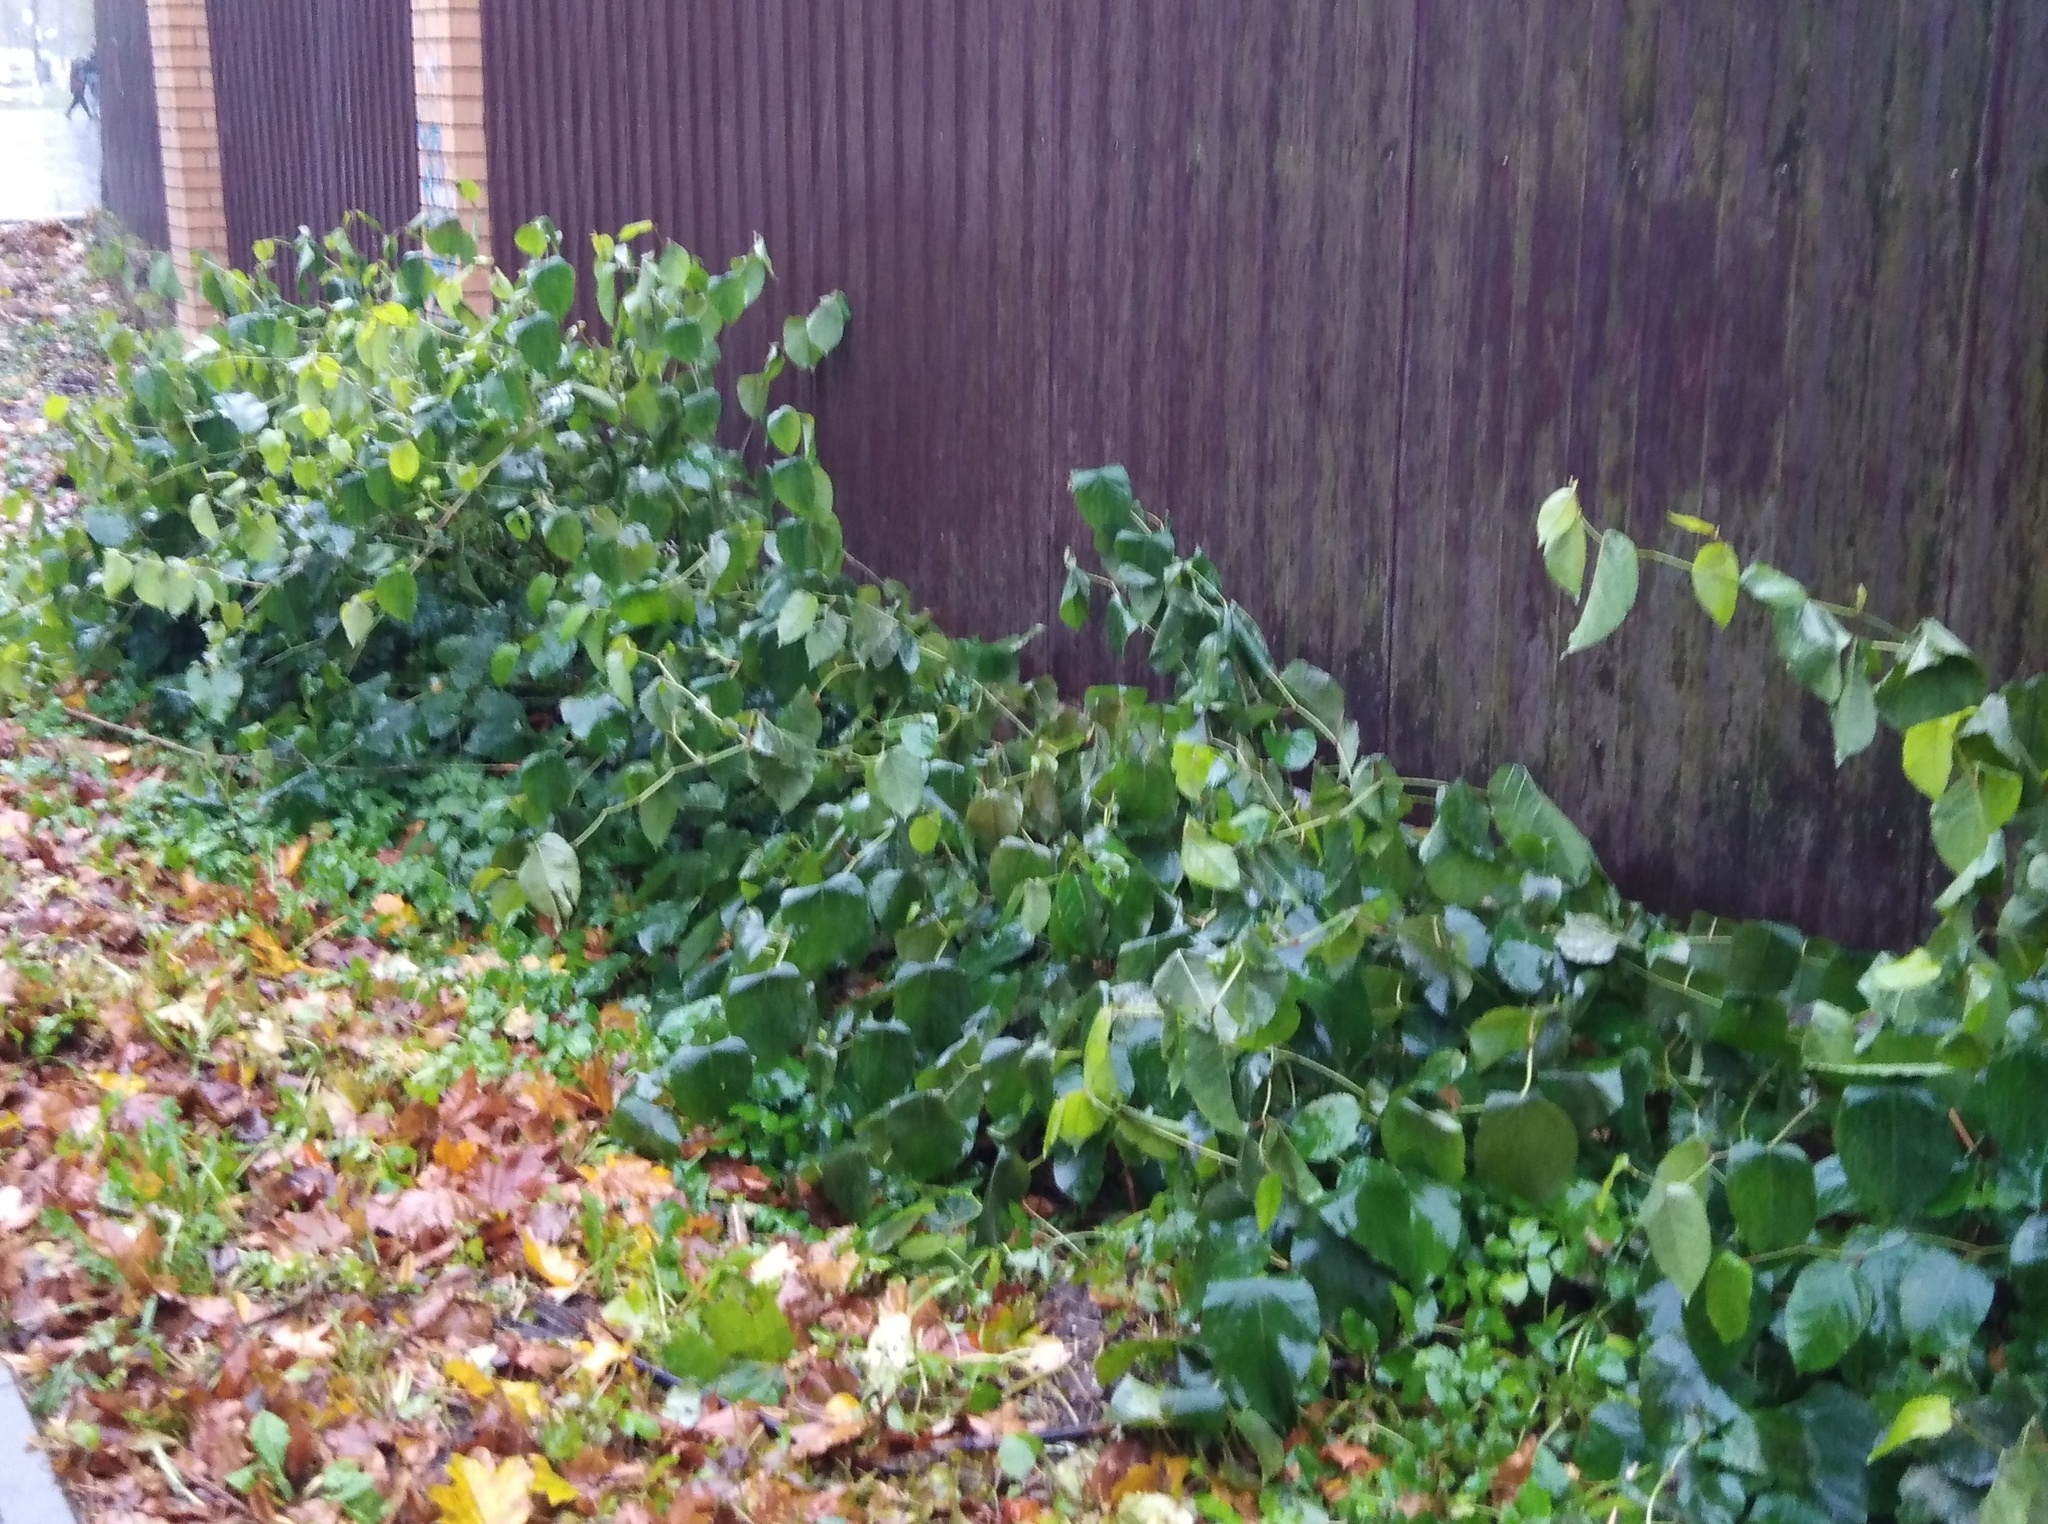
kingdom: Plantae
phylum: Tracheophyta
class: Magnoliopsida
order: Caryophyllales
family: Polygonaceae
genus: Reynoutria
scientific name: Reynoutria bohemica
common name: Bohemian knotweed
